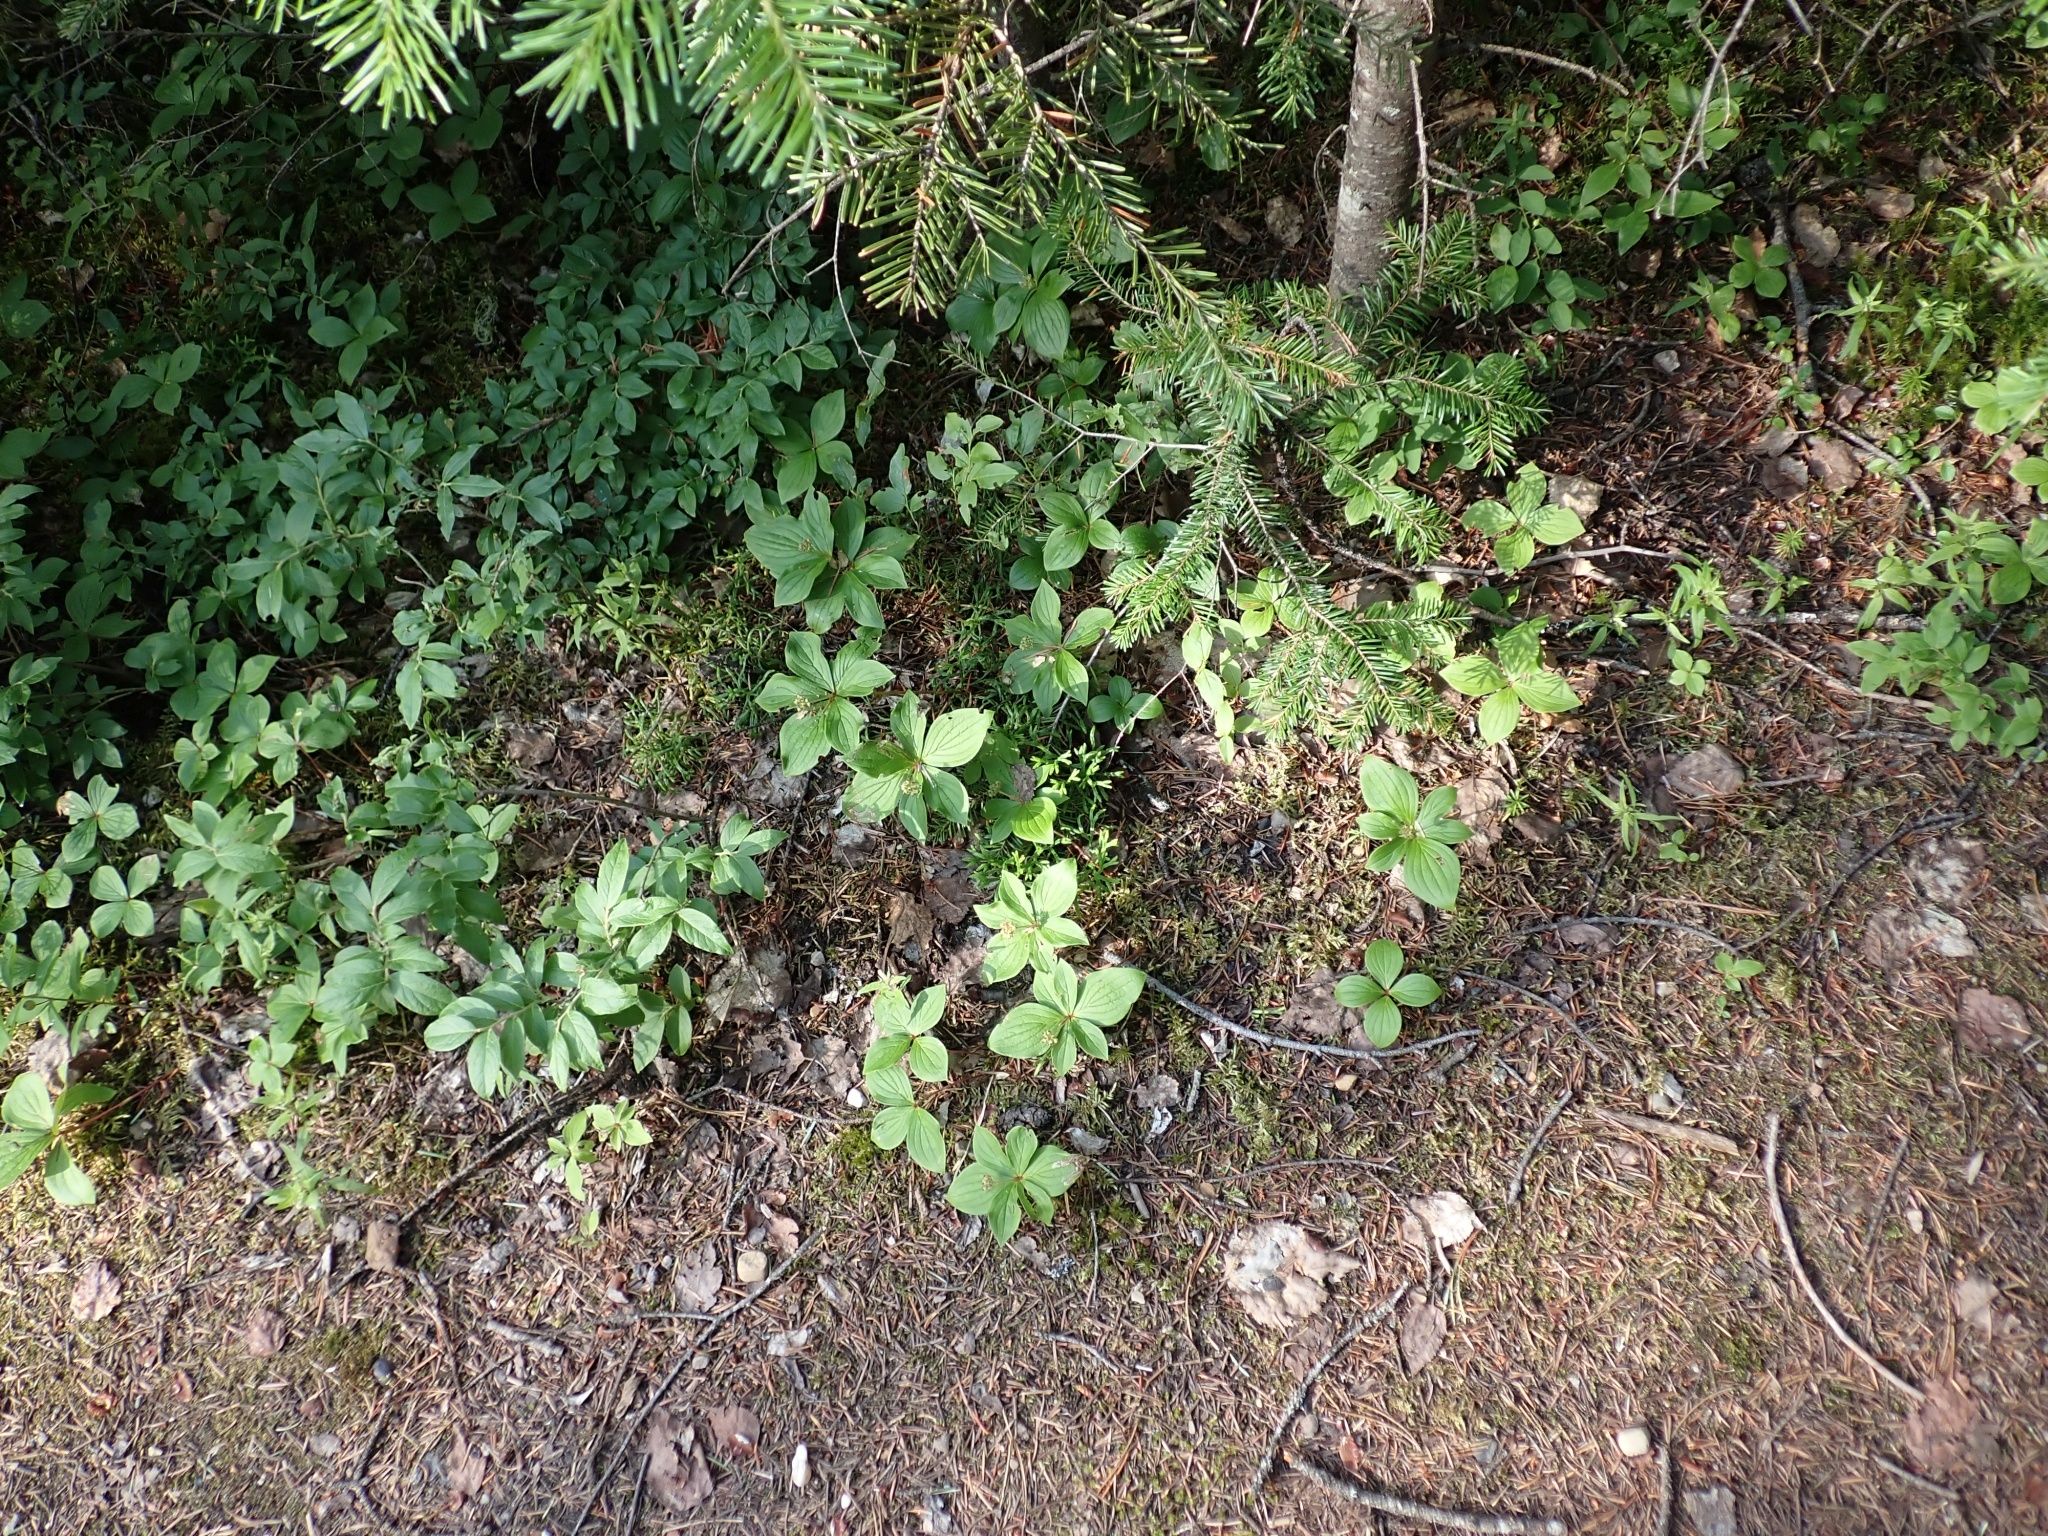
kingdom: Plantae
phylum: Tracheophyta
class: Lycopodiopsida
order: Lycopodiales
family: Lycopodiaceae
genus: Diphasiastrum
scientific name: Diphasiastrum complanatum
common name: Northern running-pine
